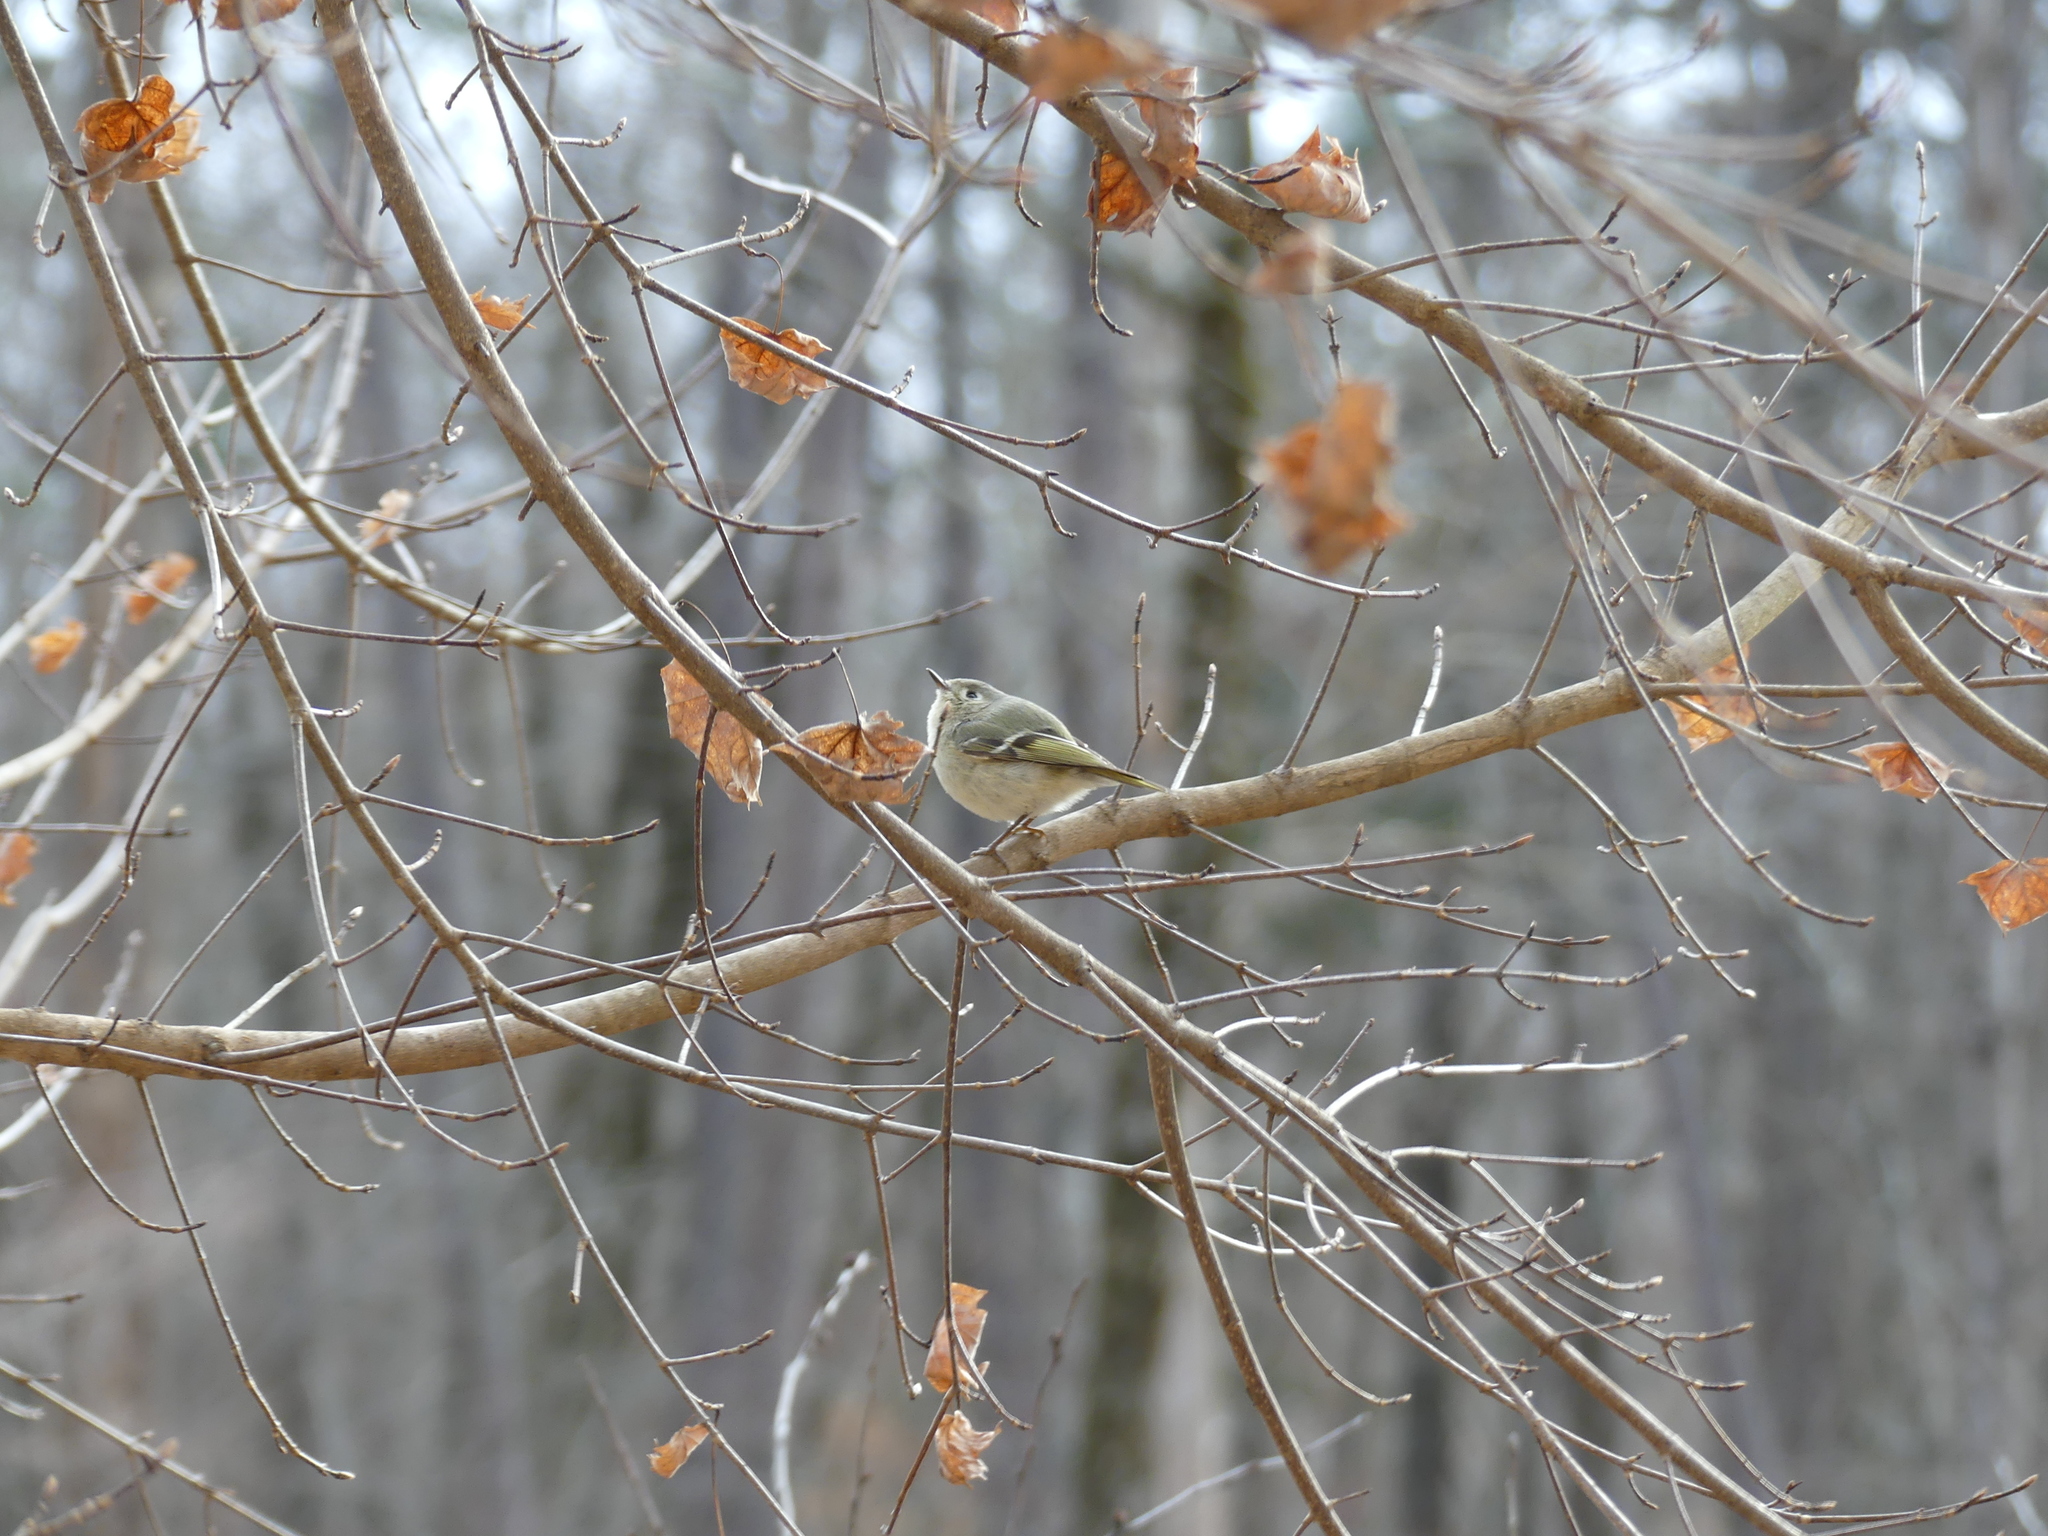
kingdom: Animalia
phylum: Chordata
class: Aves
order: Passeriformes
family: Regulidae
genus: Regulus
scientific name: Regulus calendula
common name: Ruby-crowned kinglet
